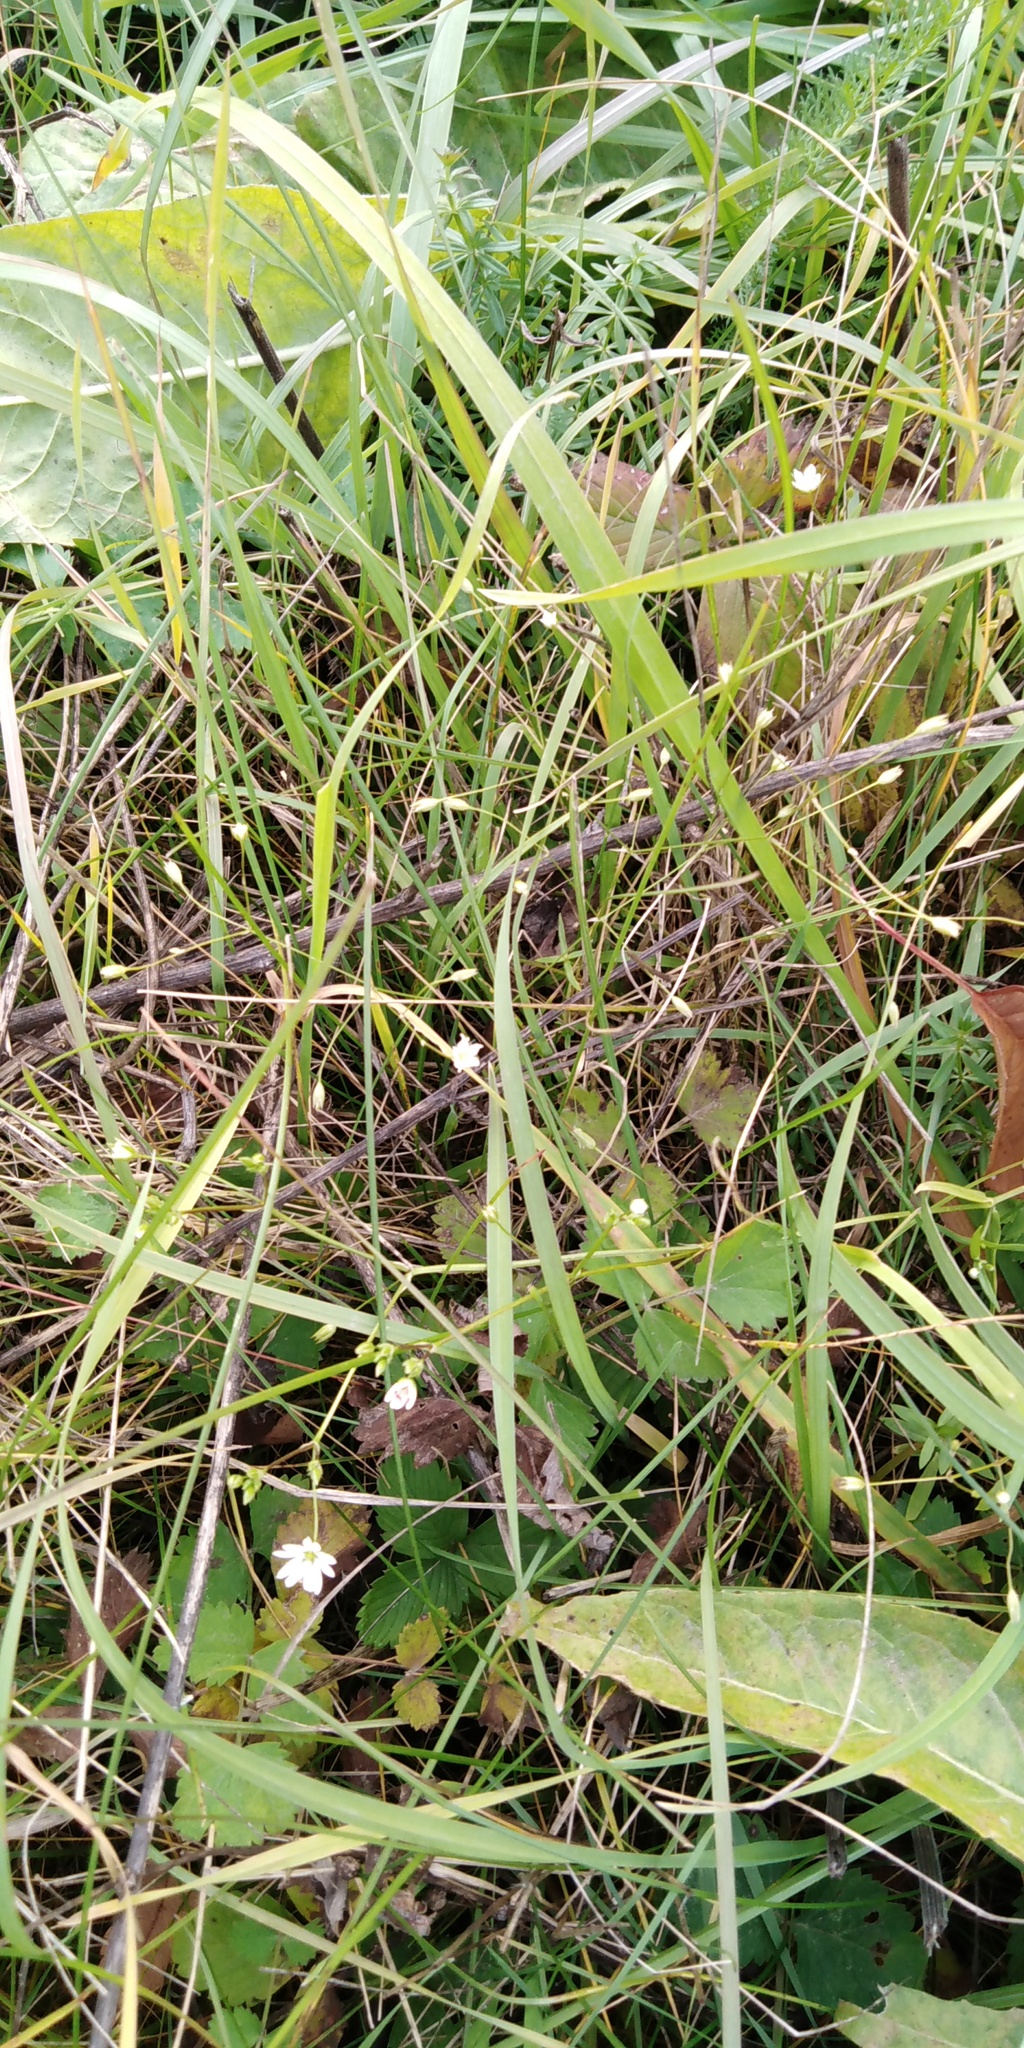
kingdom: Plantae
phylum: Tracheophyta
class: Magnoliopsida
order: Caryophyllales
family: Caryophyllaceae
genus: Stellaria
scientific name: Stellaria graminea
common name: Grass-like starwort
